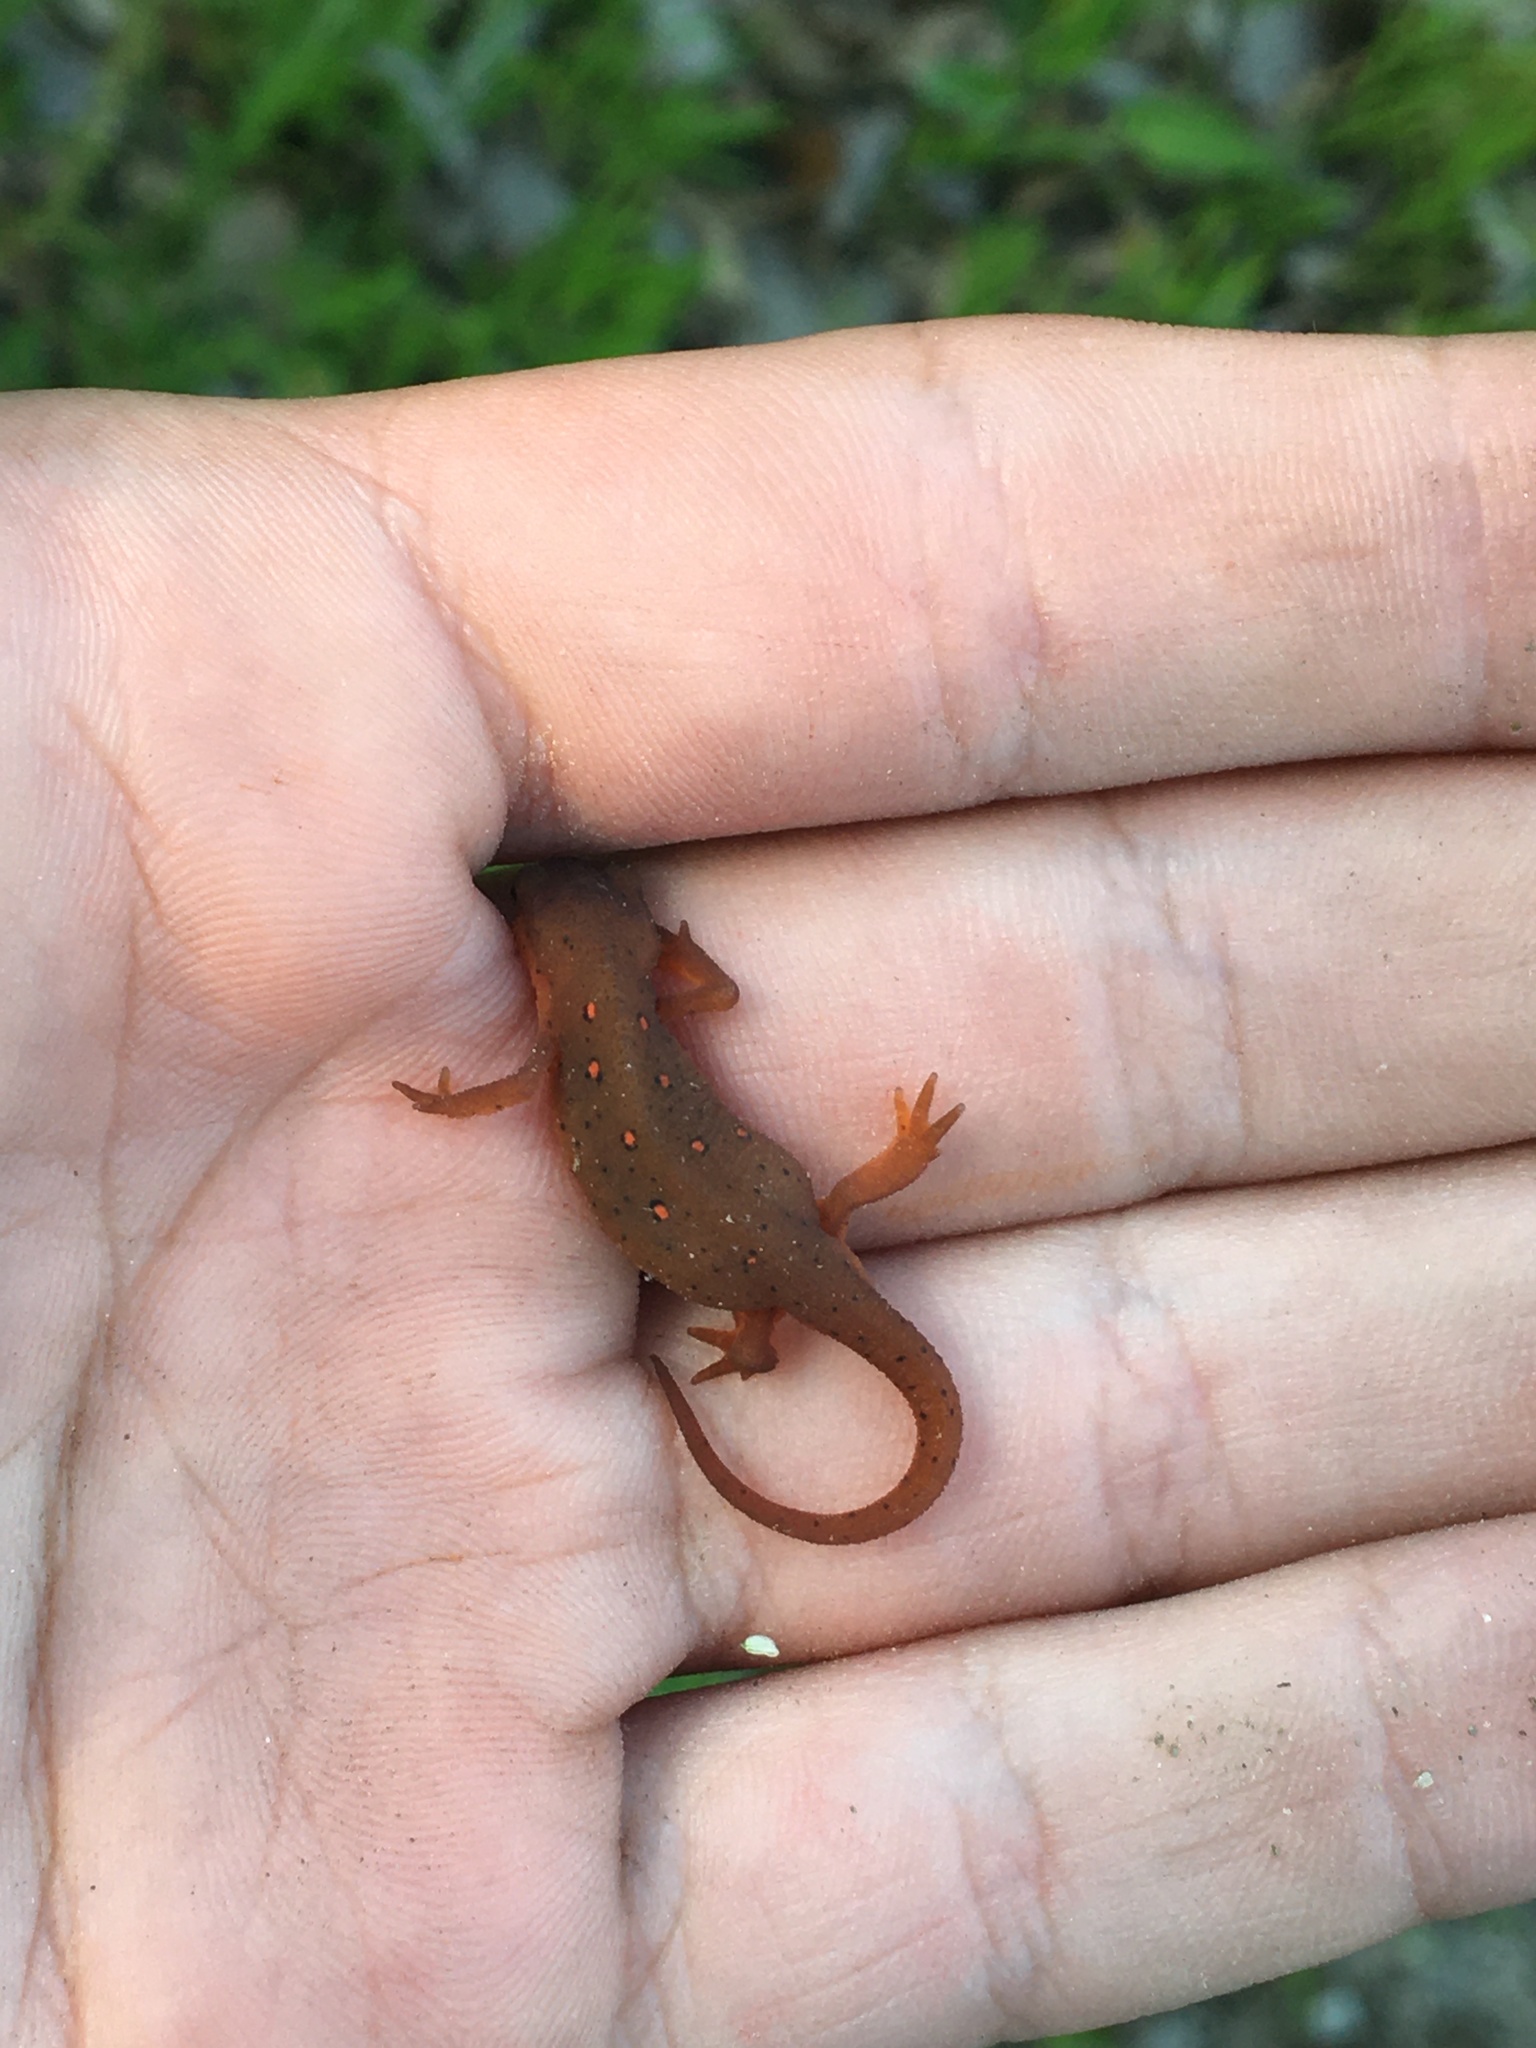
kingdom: Animalia
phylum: Chordata
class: Amphibia
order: Caudata
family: Salamandridae
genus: Notophthalmus
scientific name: Notophthalmus viridescens
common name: Eastern newt
